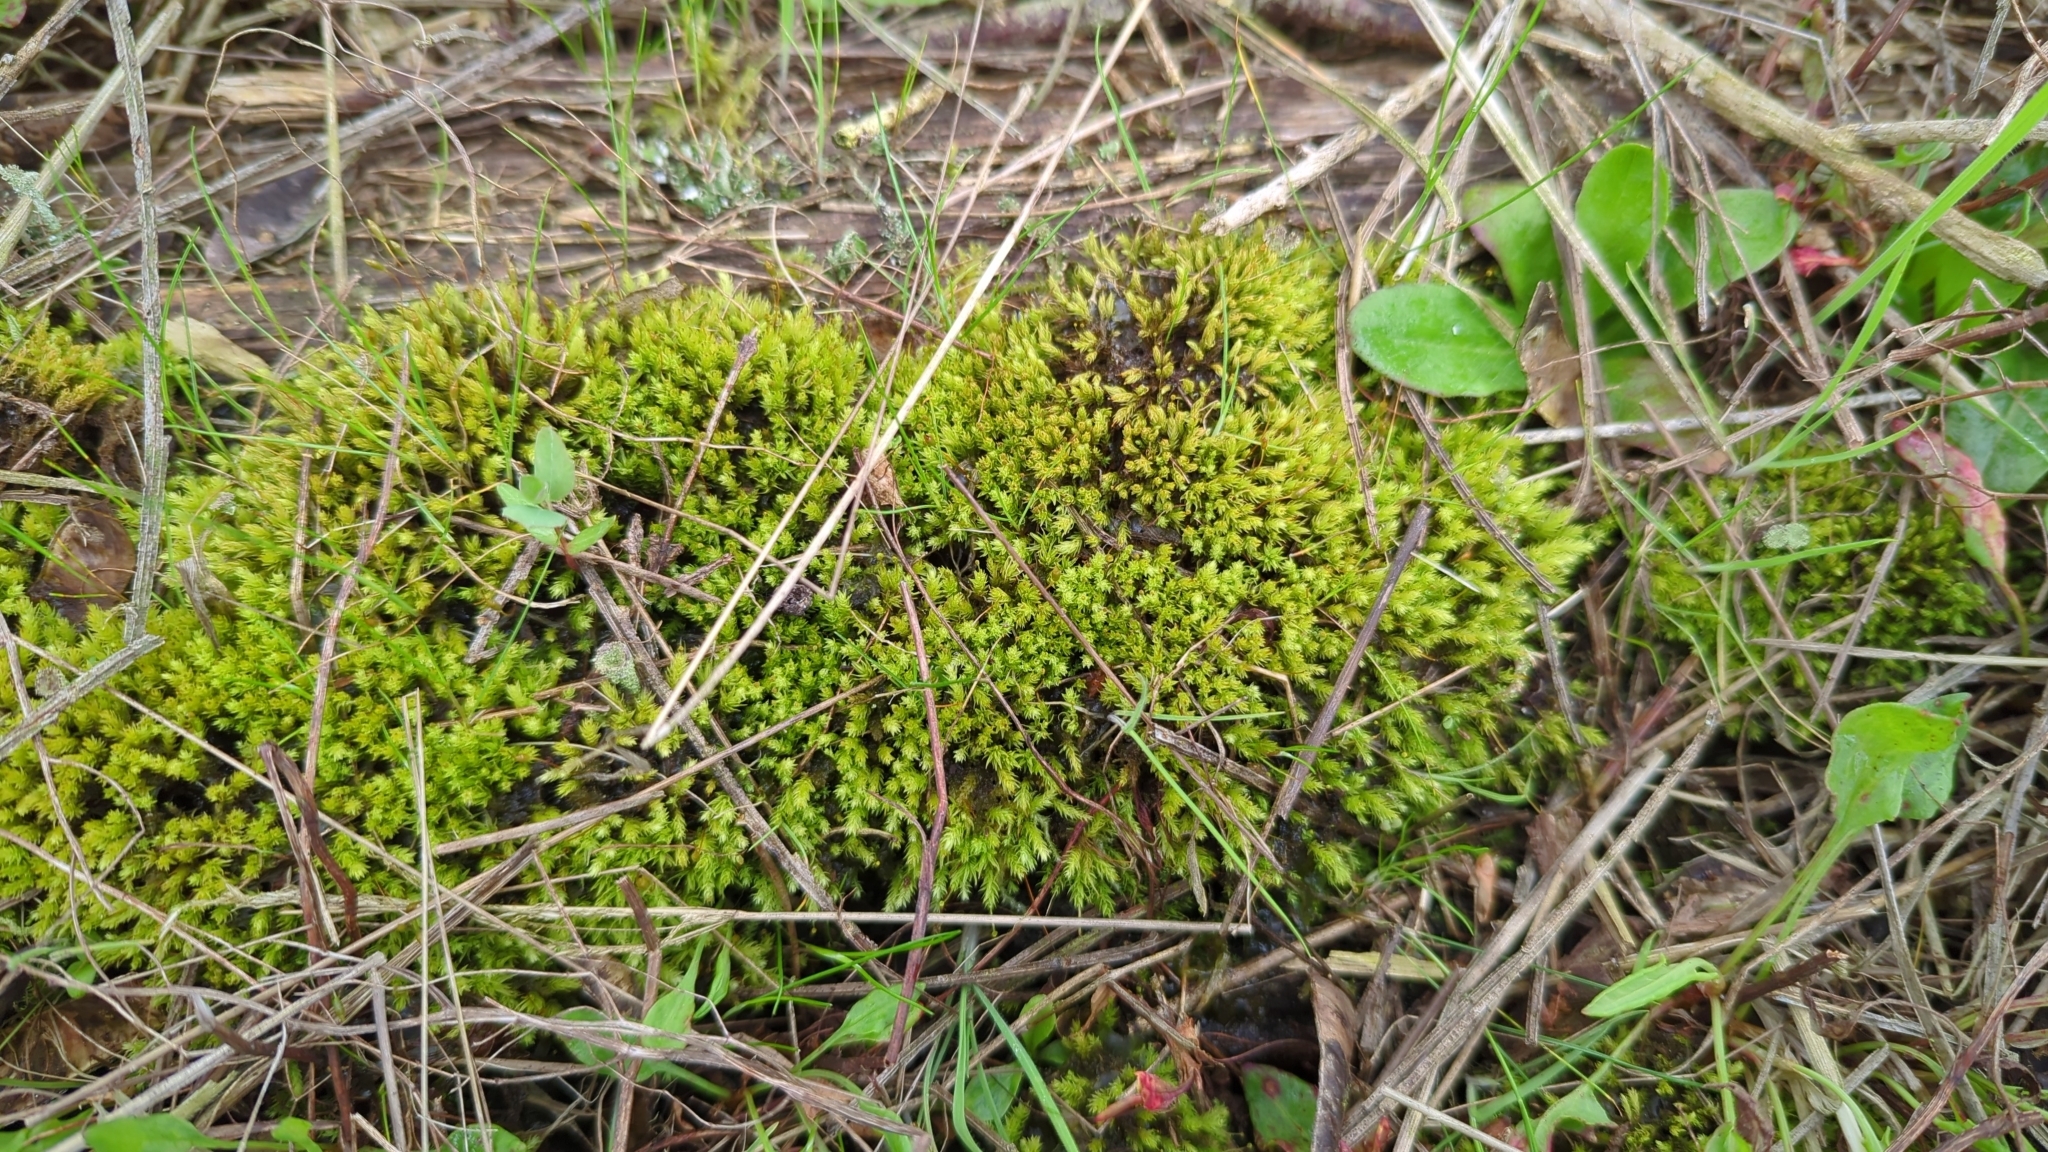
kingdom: Plantae
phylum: Bryophyta
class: Bryopsida
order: Aulacomniales
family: Aulacomniaceae
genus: Aulacomnium
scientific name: Aulacomnium androgynum
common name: Little groove moss
